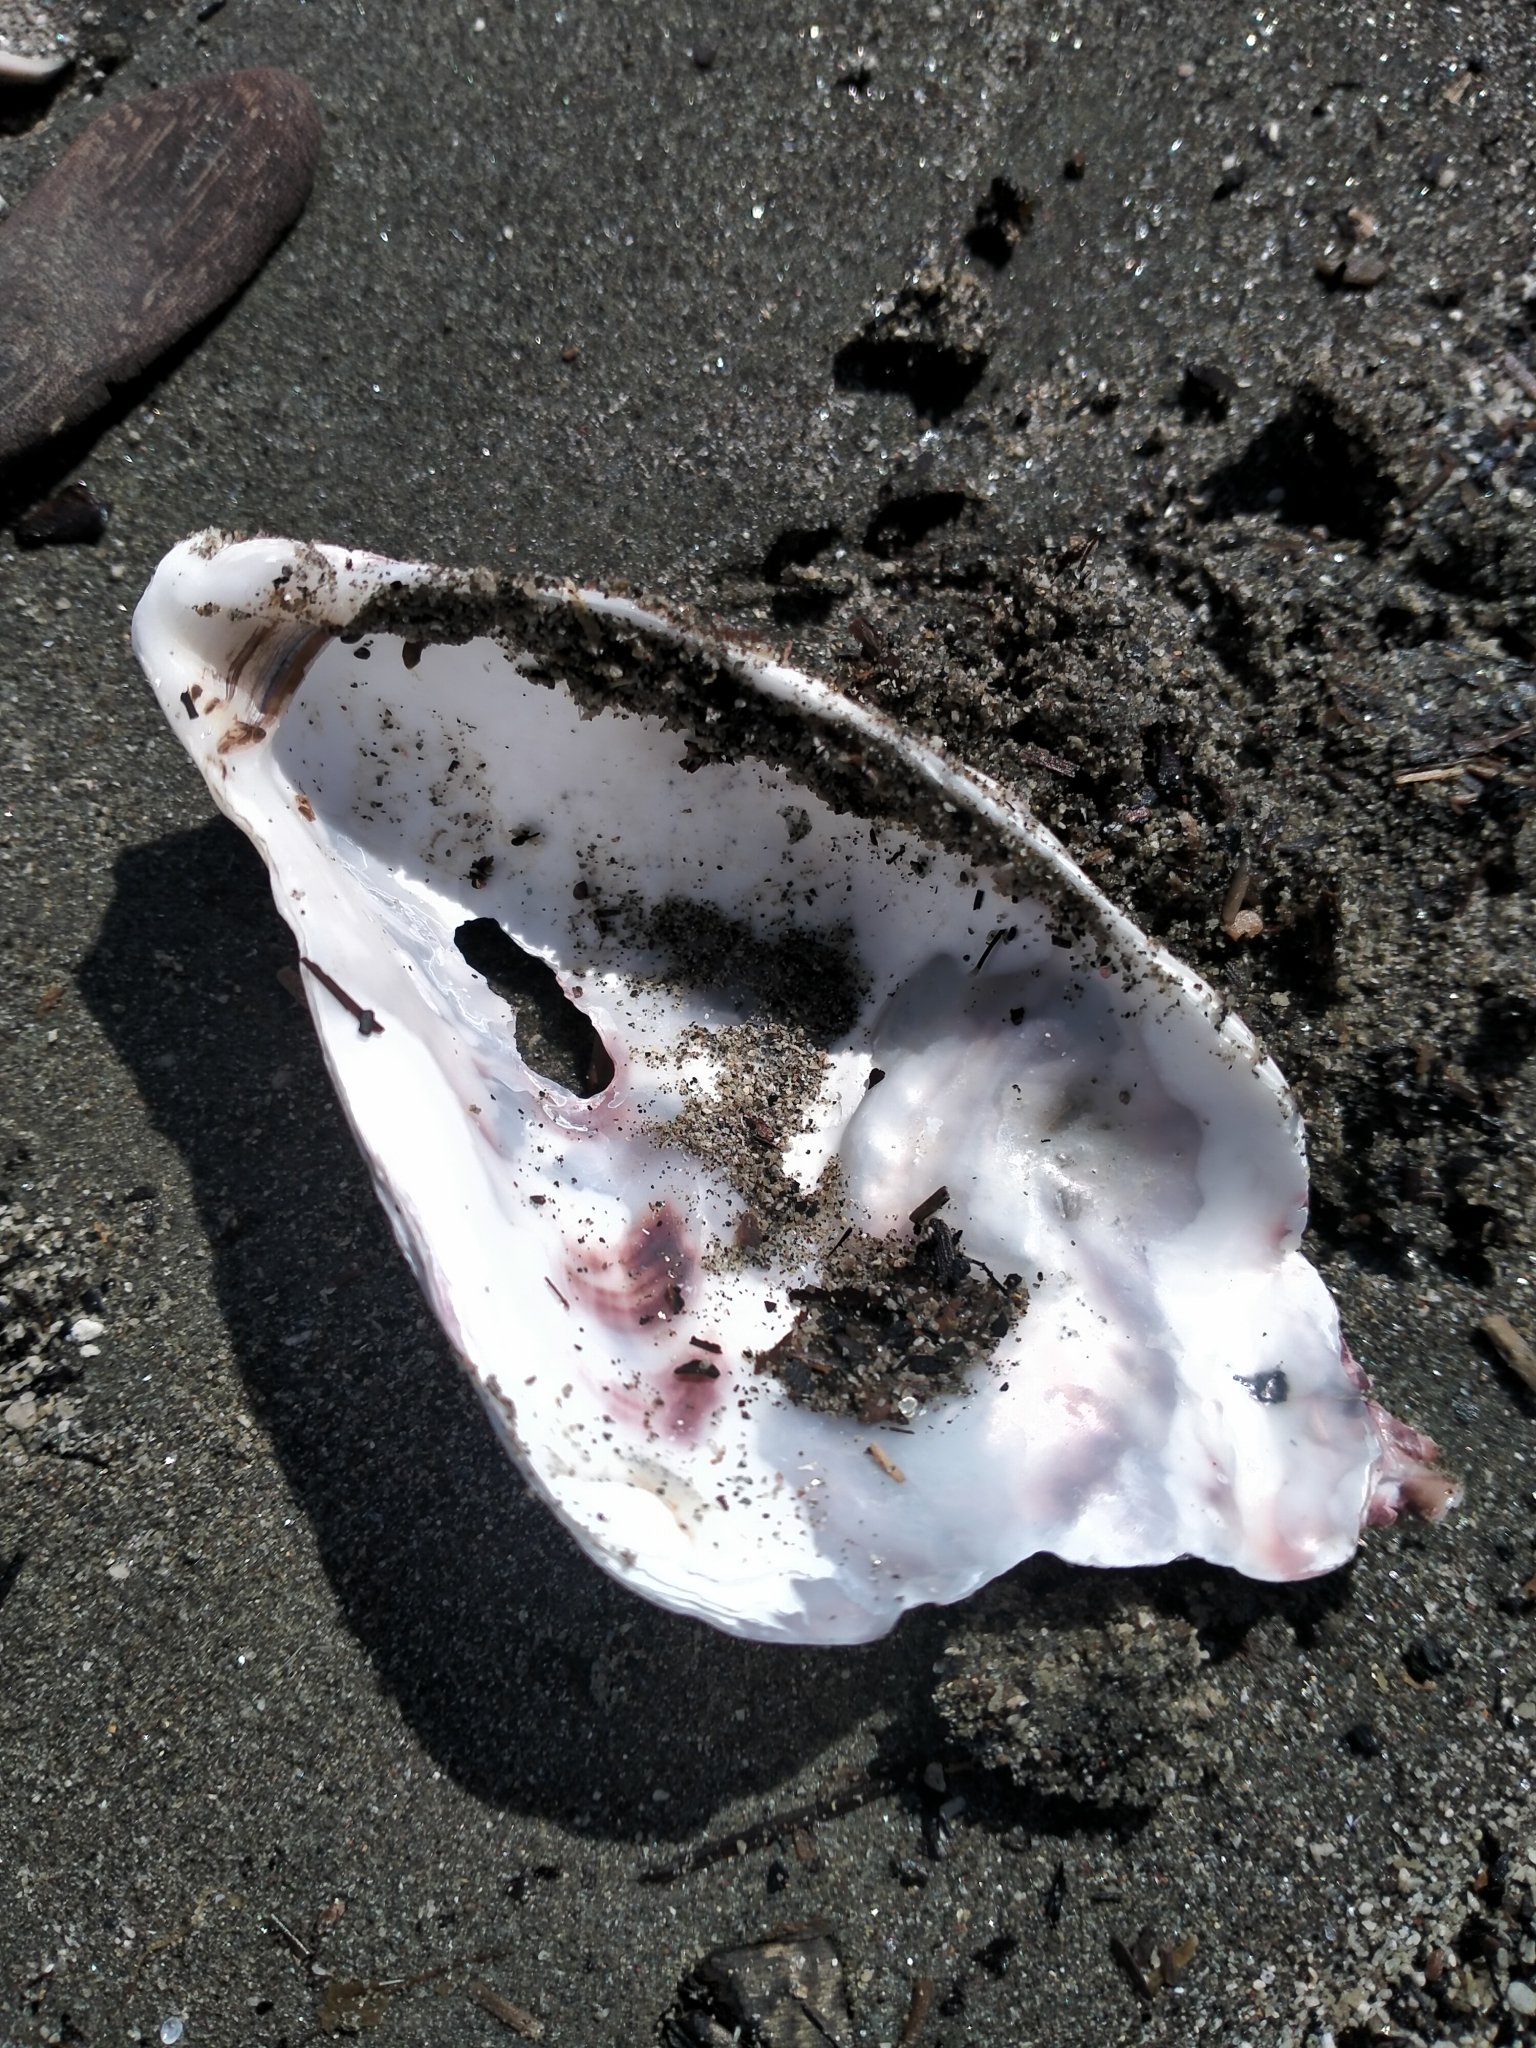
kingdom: Animalia
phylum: Mollusca
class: Bivalvia
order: Ostreida
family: Ostreidae
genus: Magallana
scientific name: Magallana gigas
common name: Pacific oyster
